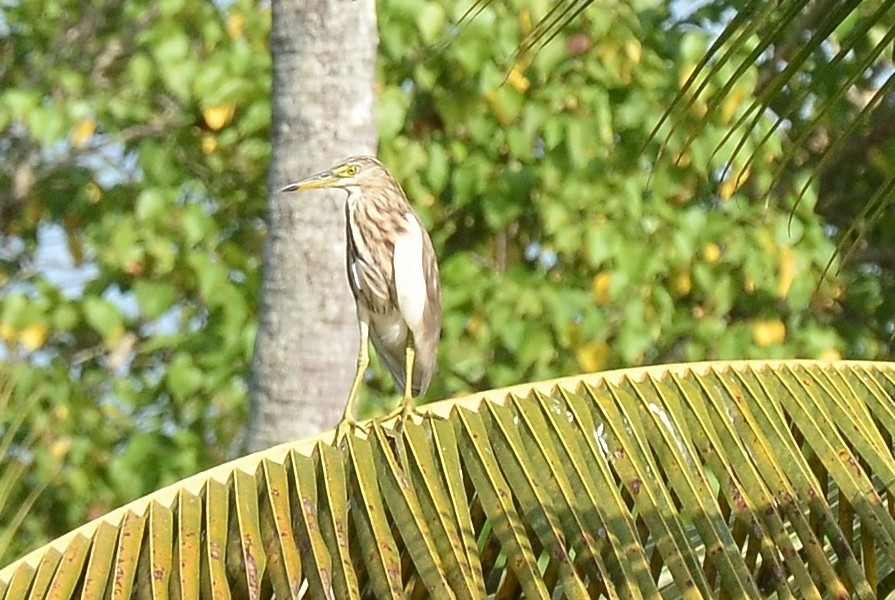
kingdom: Animalia
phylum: Chordata
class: Aves
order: Pelecaniformes
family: Ardeidae
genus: Ardeola
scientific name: Ardeola grayii
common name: Indian pond heron
